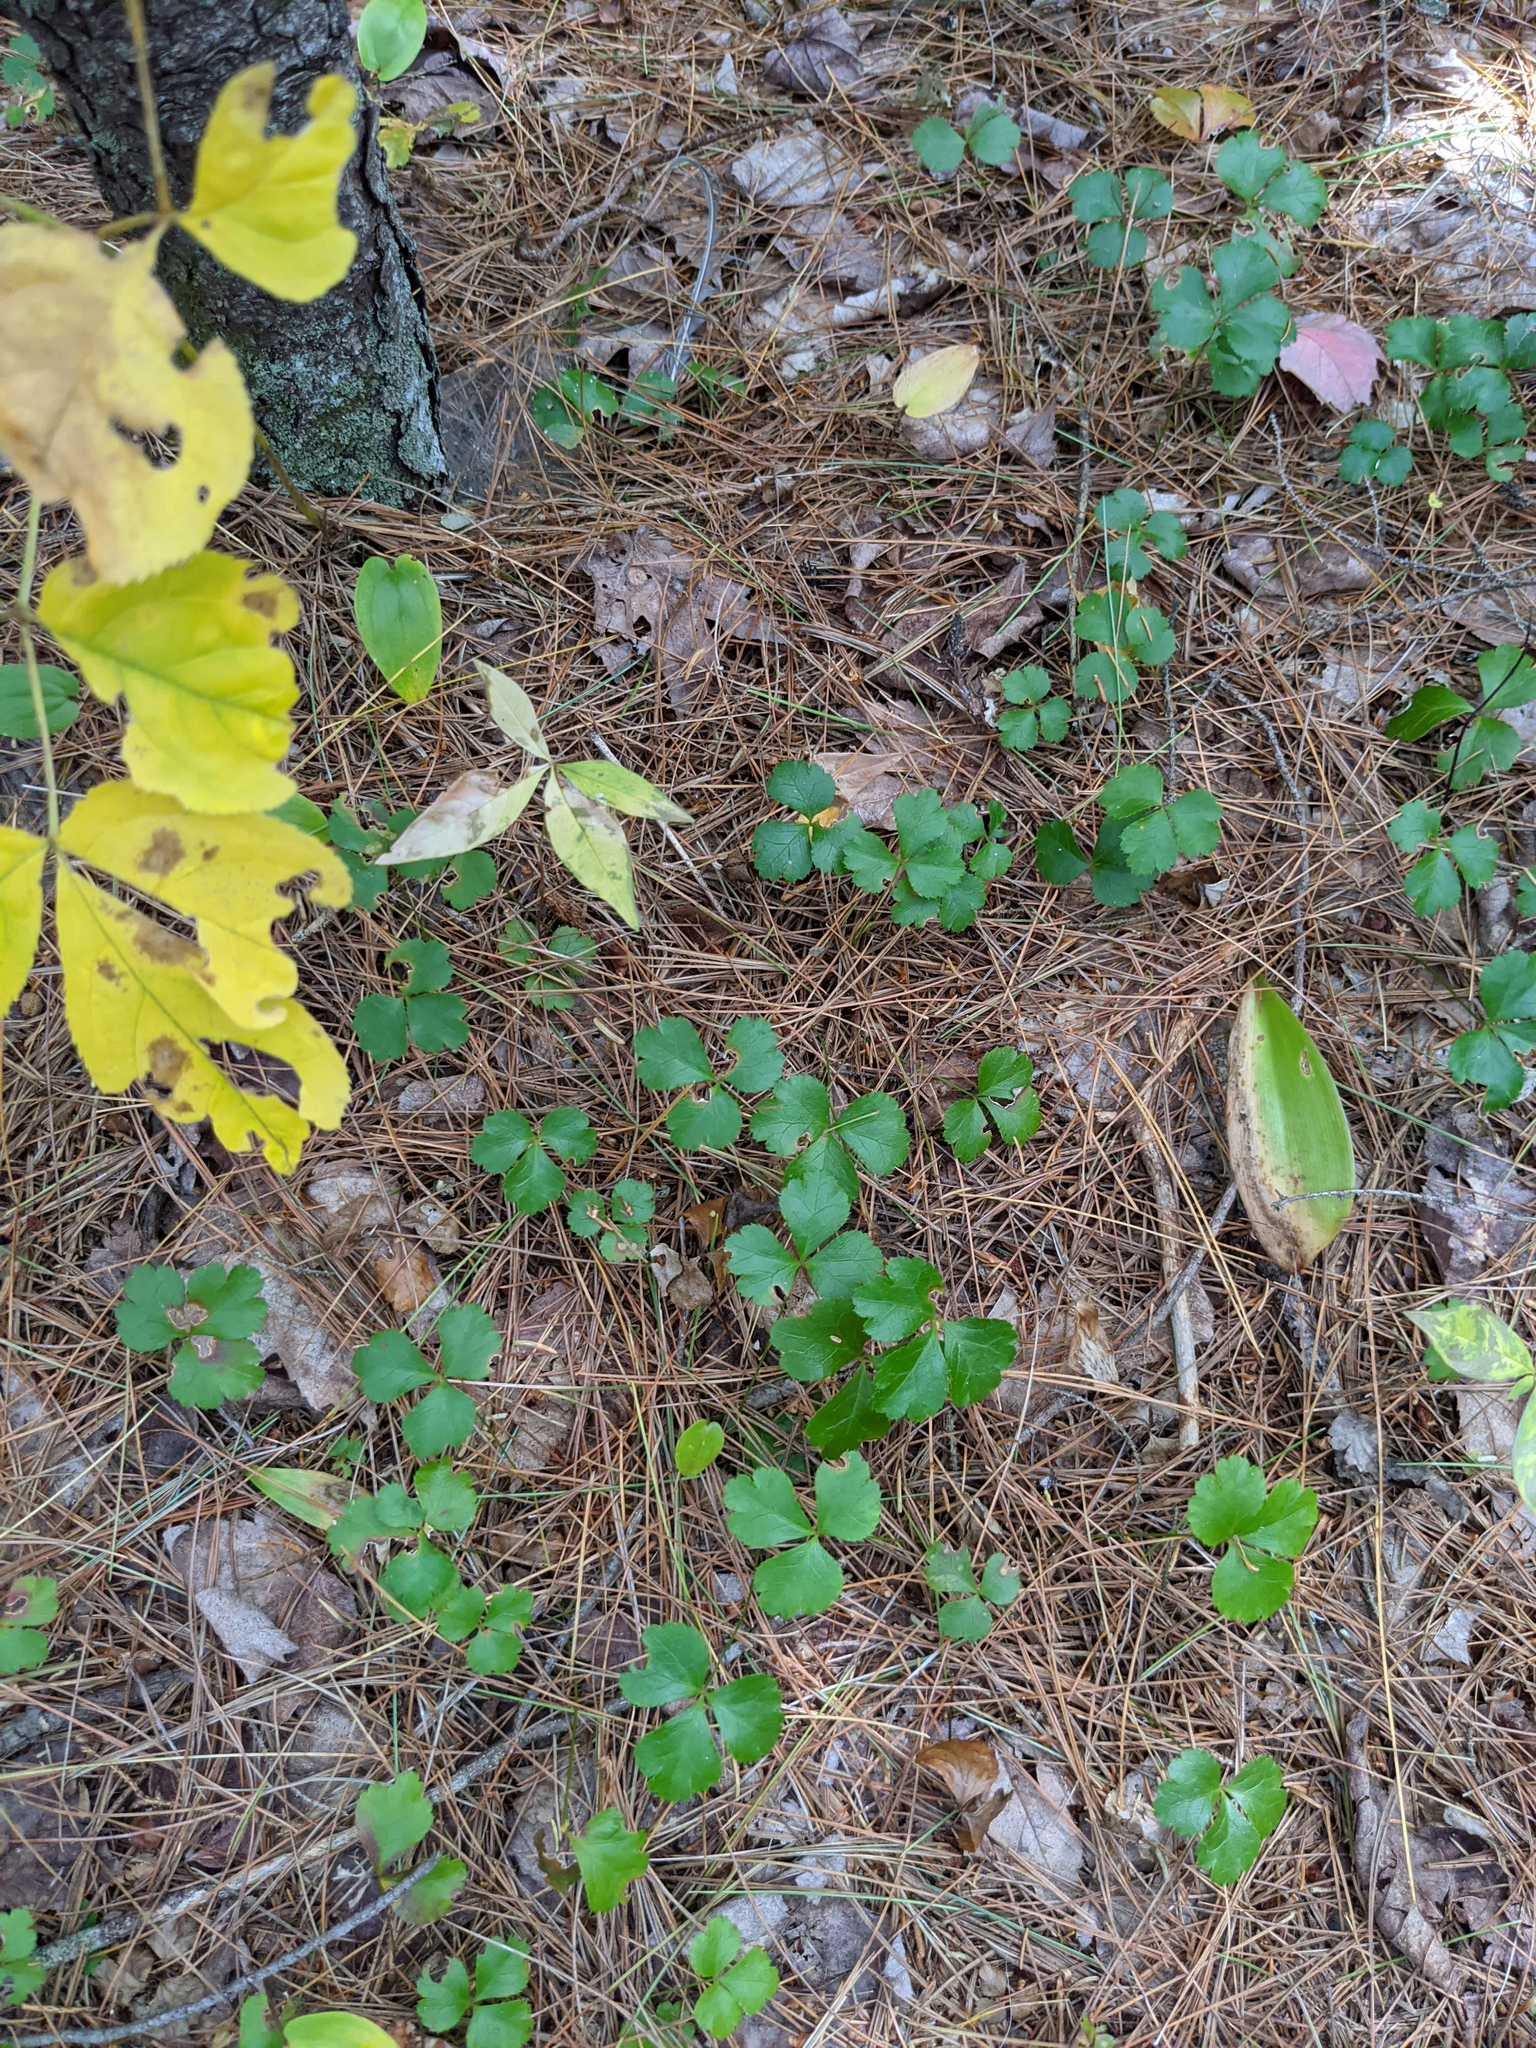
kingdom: Plantae
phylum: Tracheophyta
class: Liliopsida
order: Asparagales
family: Asparagaceae
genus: Maianthemum
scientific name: Maianthemum canadense
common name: False lily-of-the-valley
